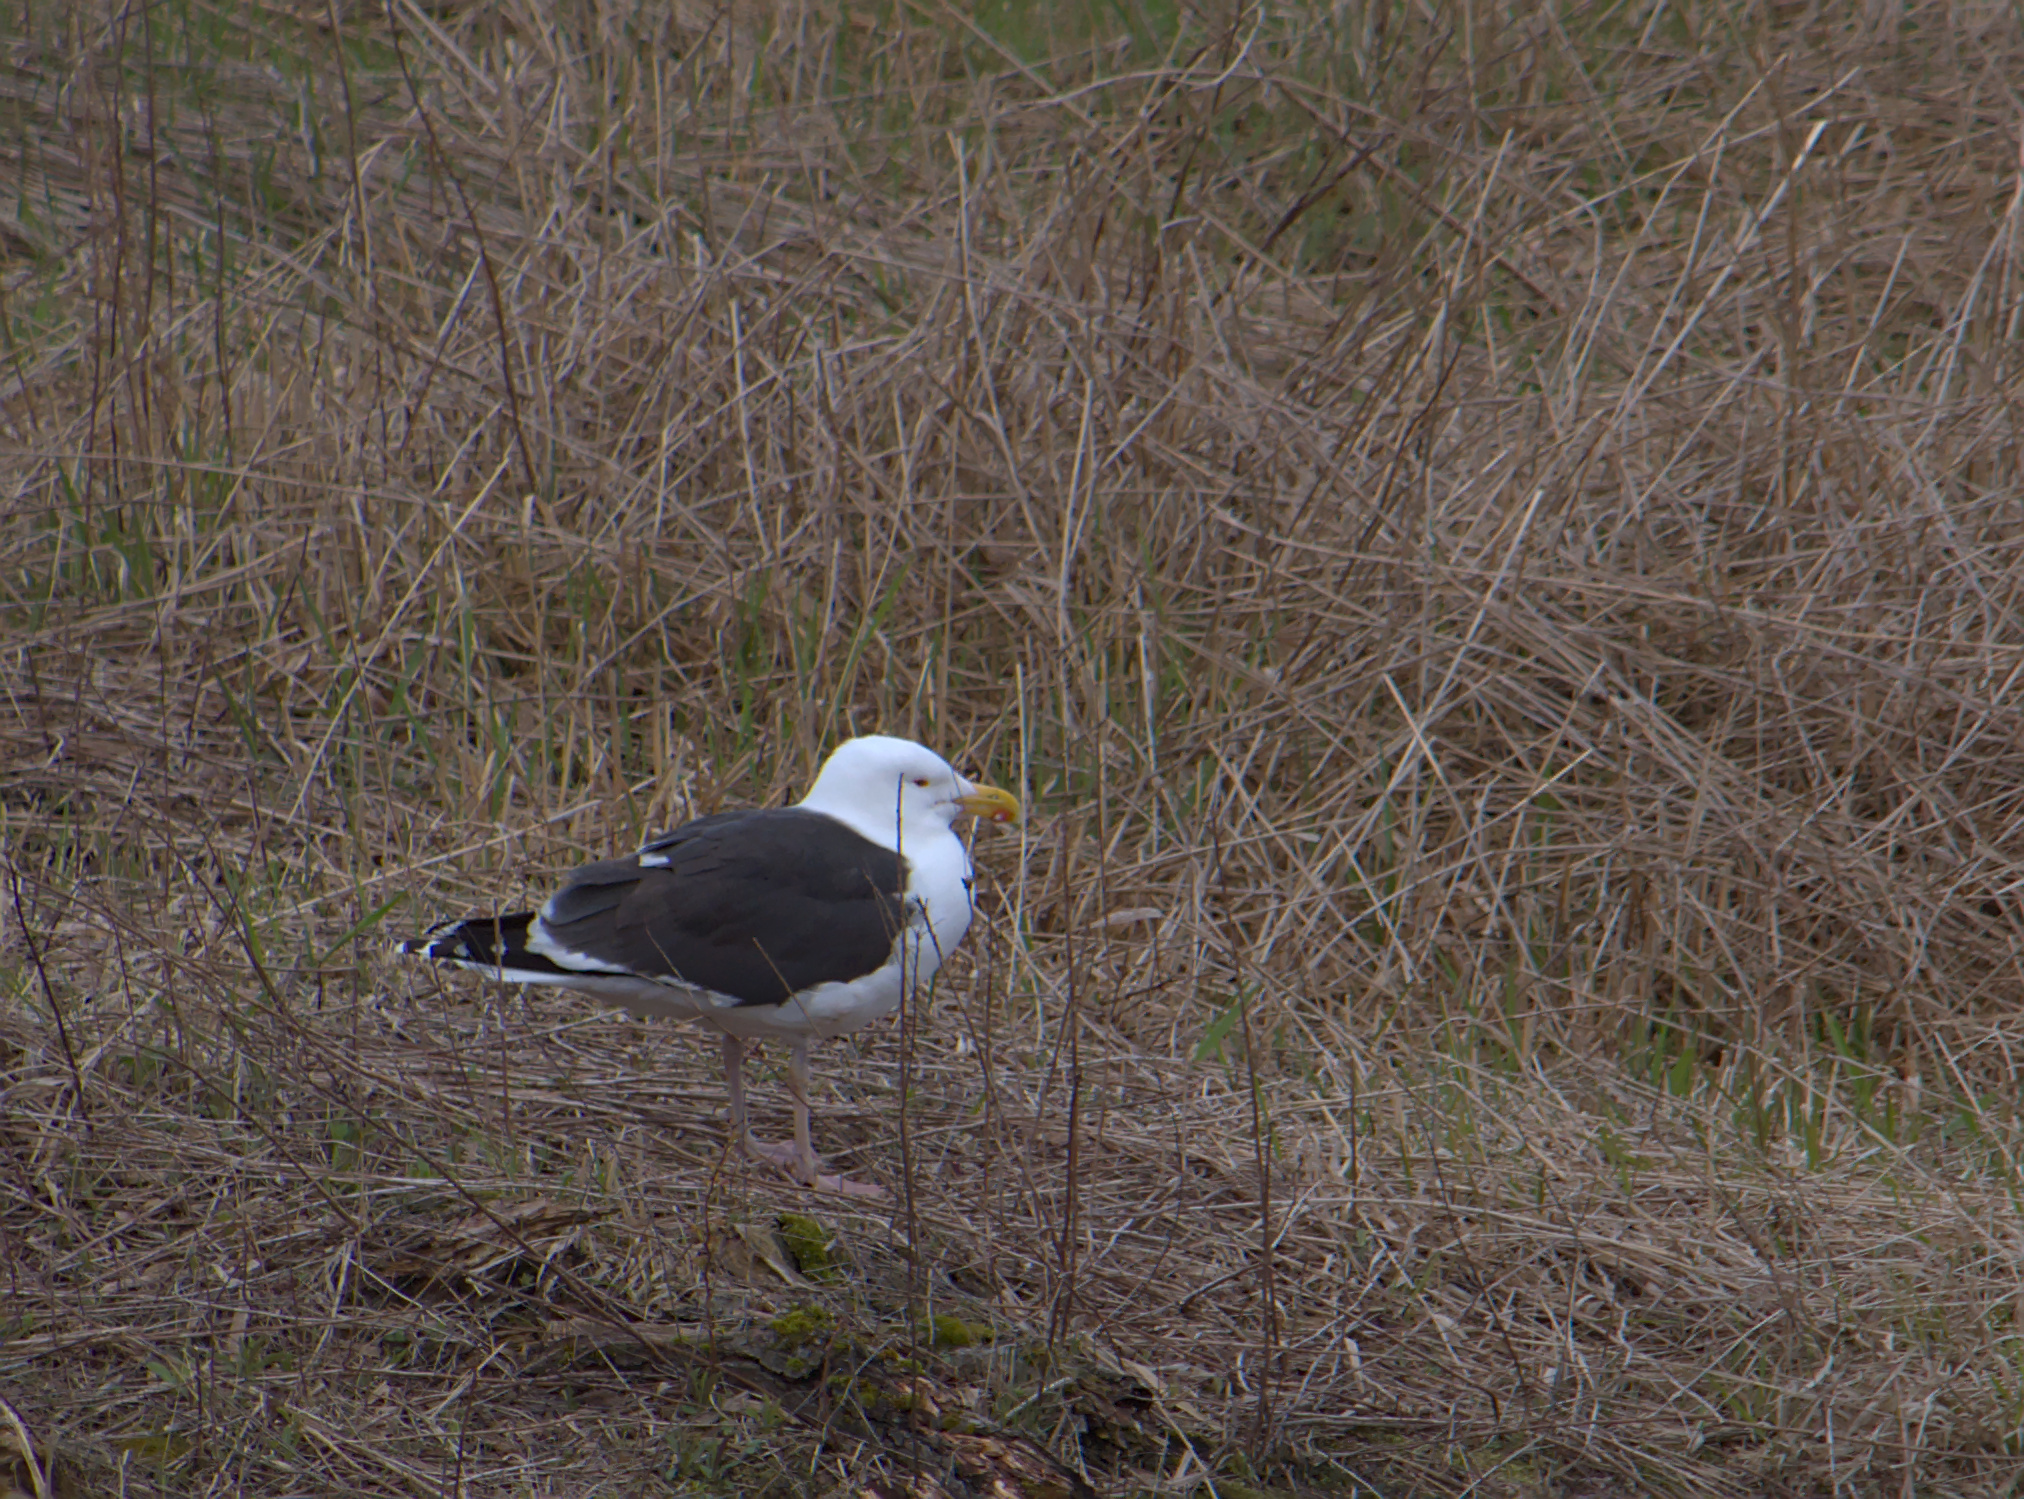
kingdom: Animalia
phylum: Chordata
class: Aves
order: Charadriiformes
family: Laridae
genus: Larus
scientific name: Larus marinus
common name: Great black-backed gull
